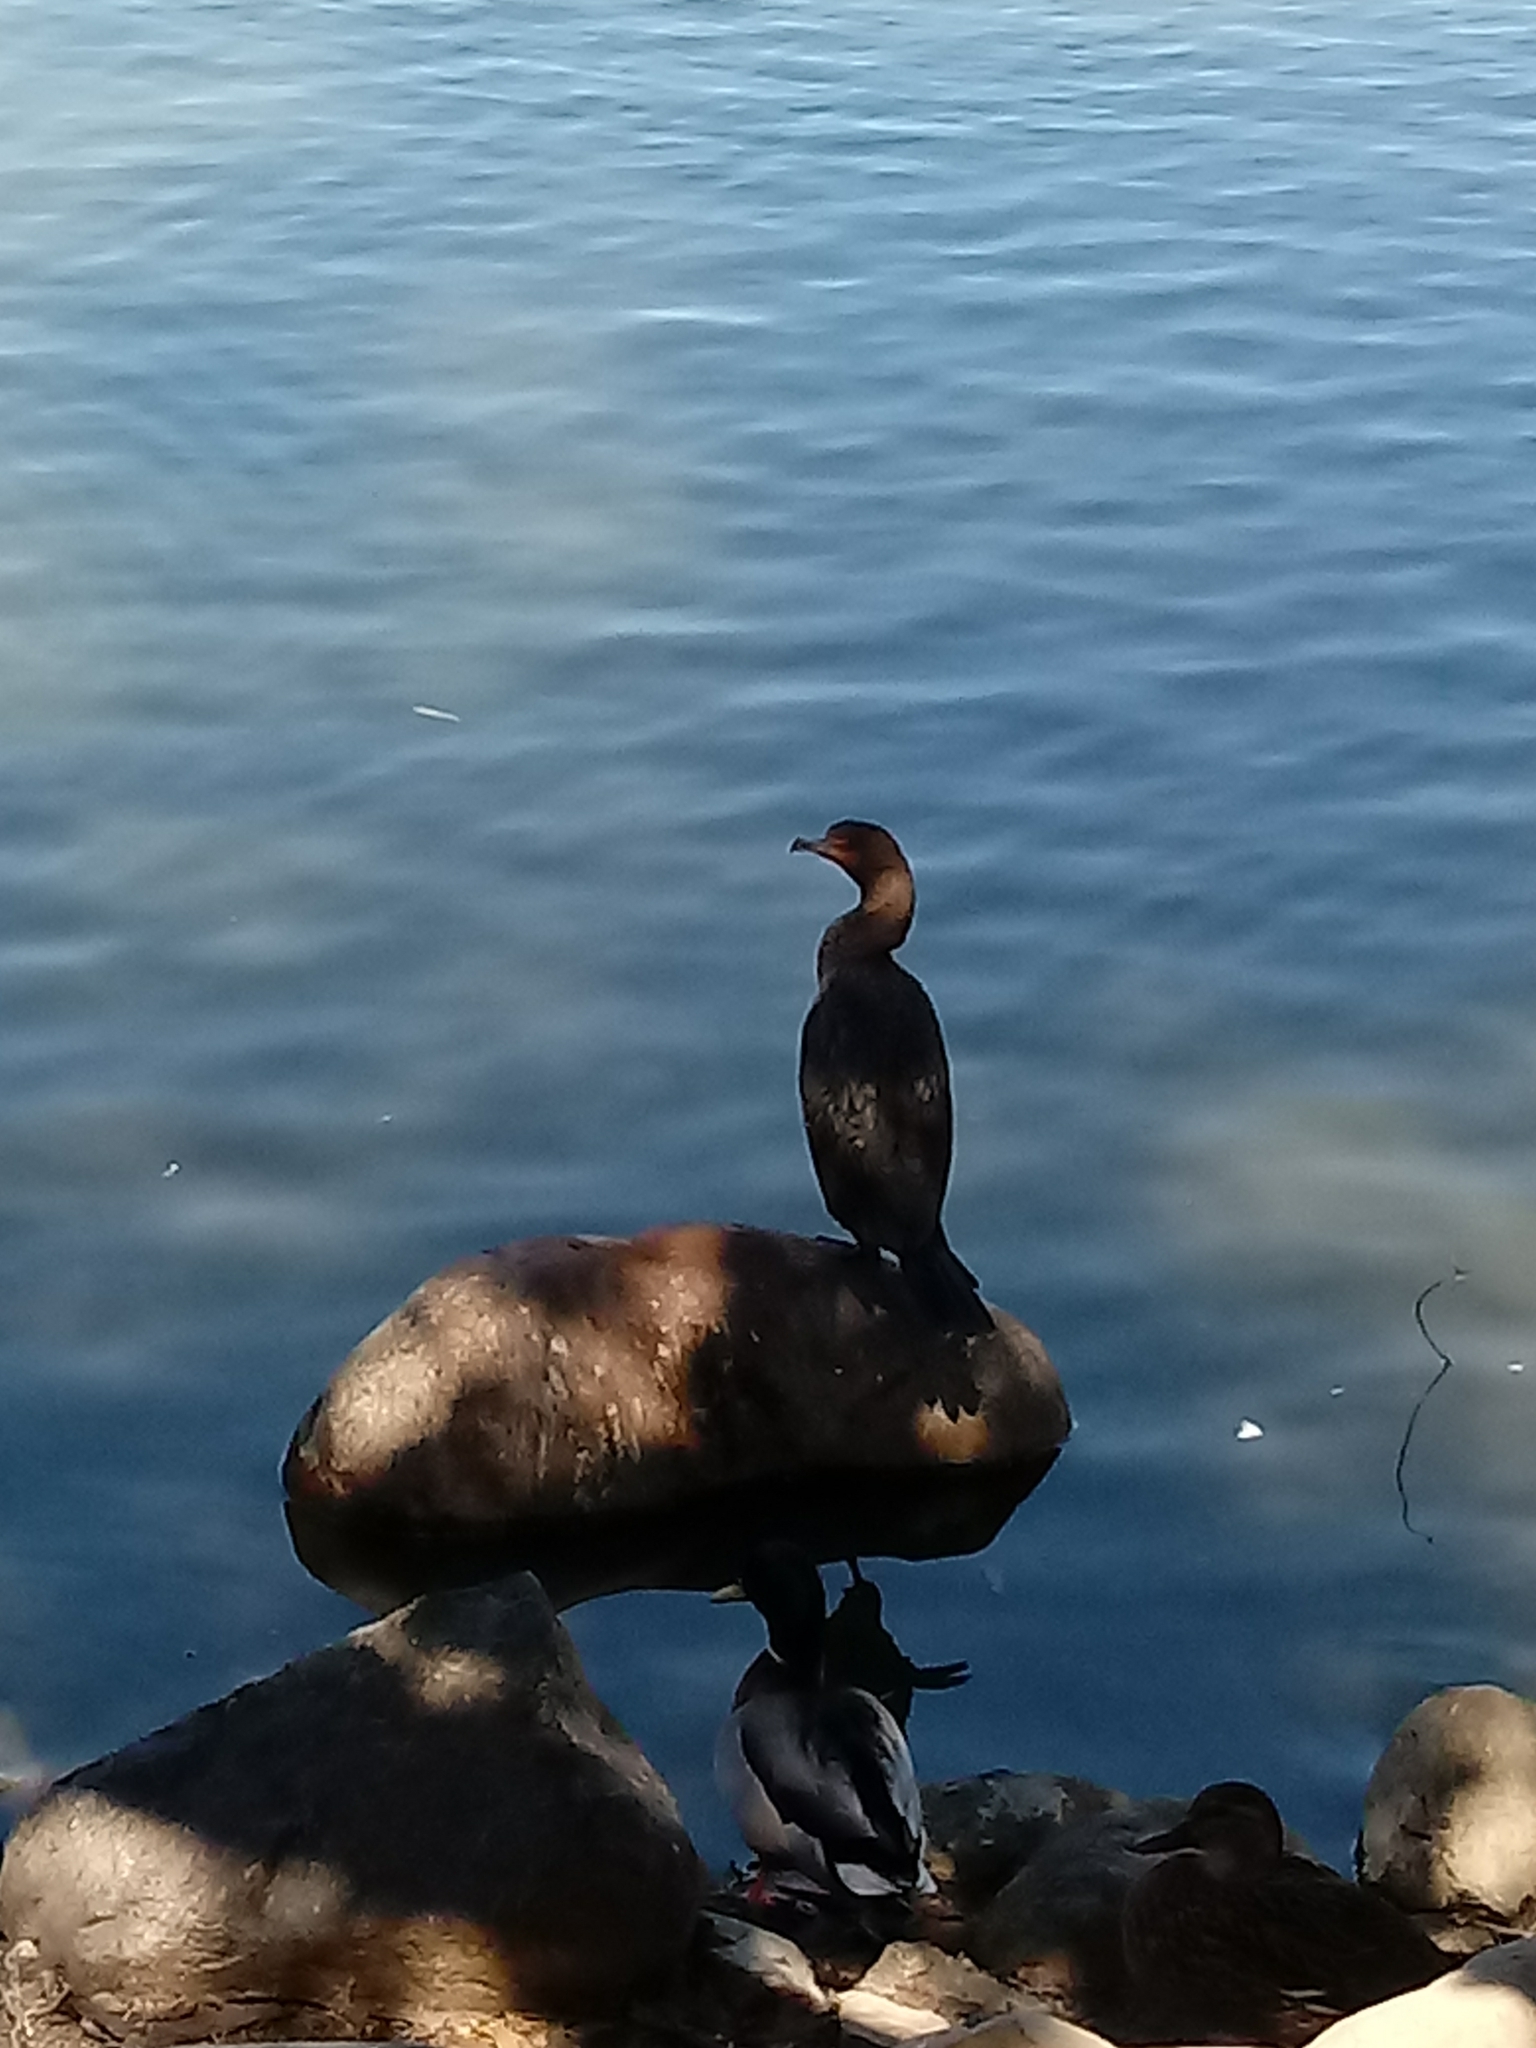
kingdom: Animalia
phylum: Chordata
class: Aves
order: Suliformes
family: Phalacrocoracidae
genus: Phalacrocorax
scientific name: Phalacrocorax auritus
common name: Double-crested cormorant
